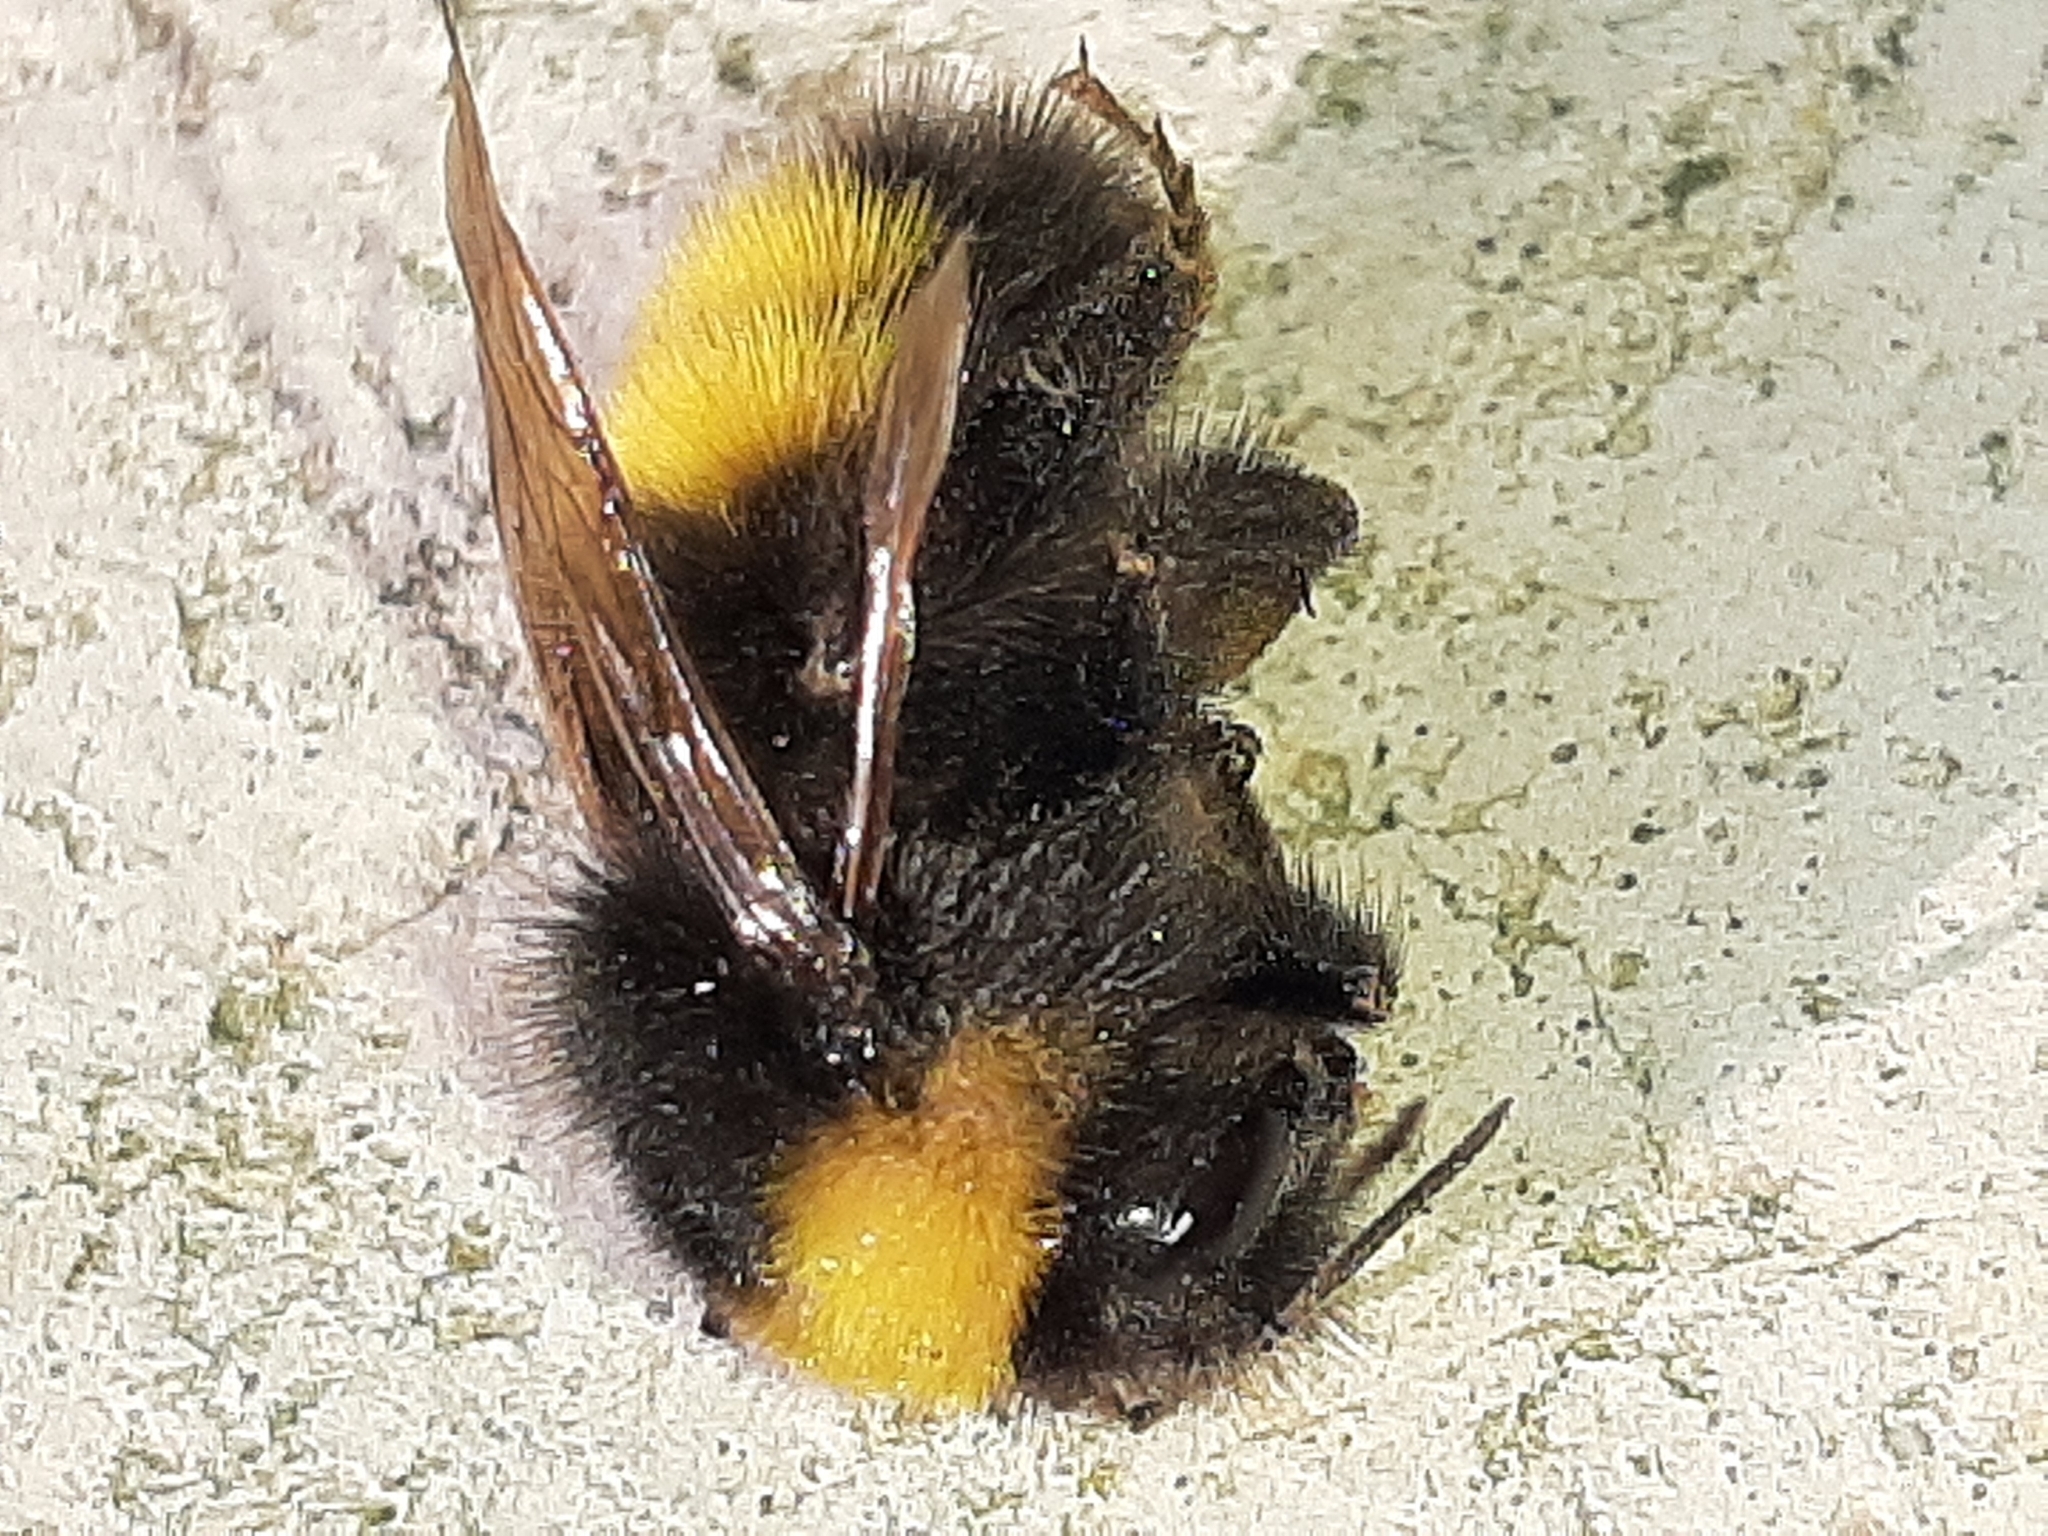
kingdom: Animalia
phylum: Arthropoda
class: Insecta
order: Hymenoptera
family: Apidae
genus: Bombus
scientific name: Bombus haematurus
